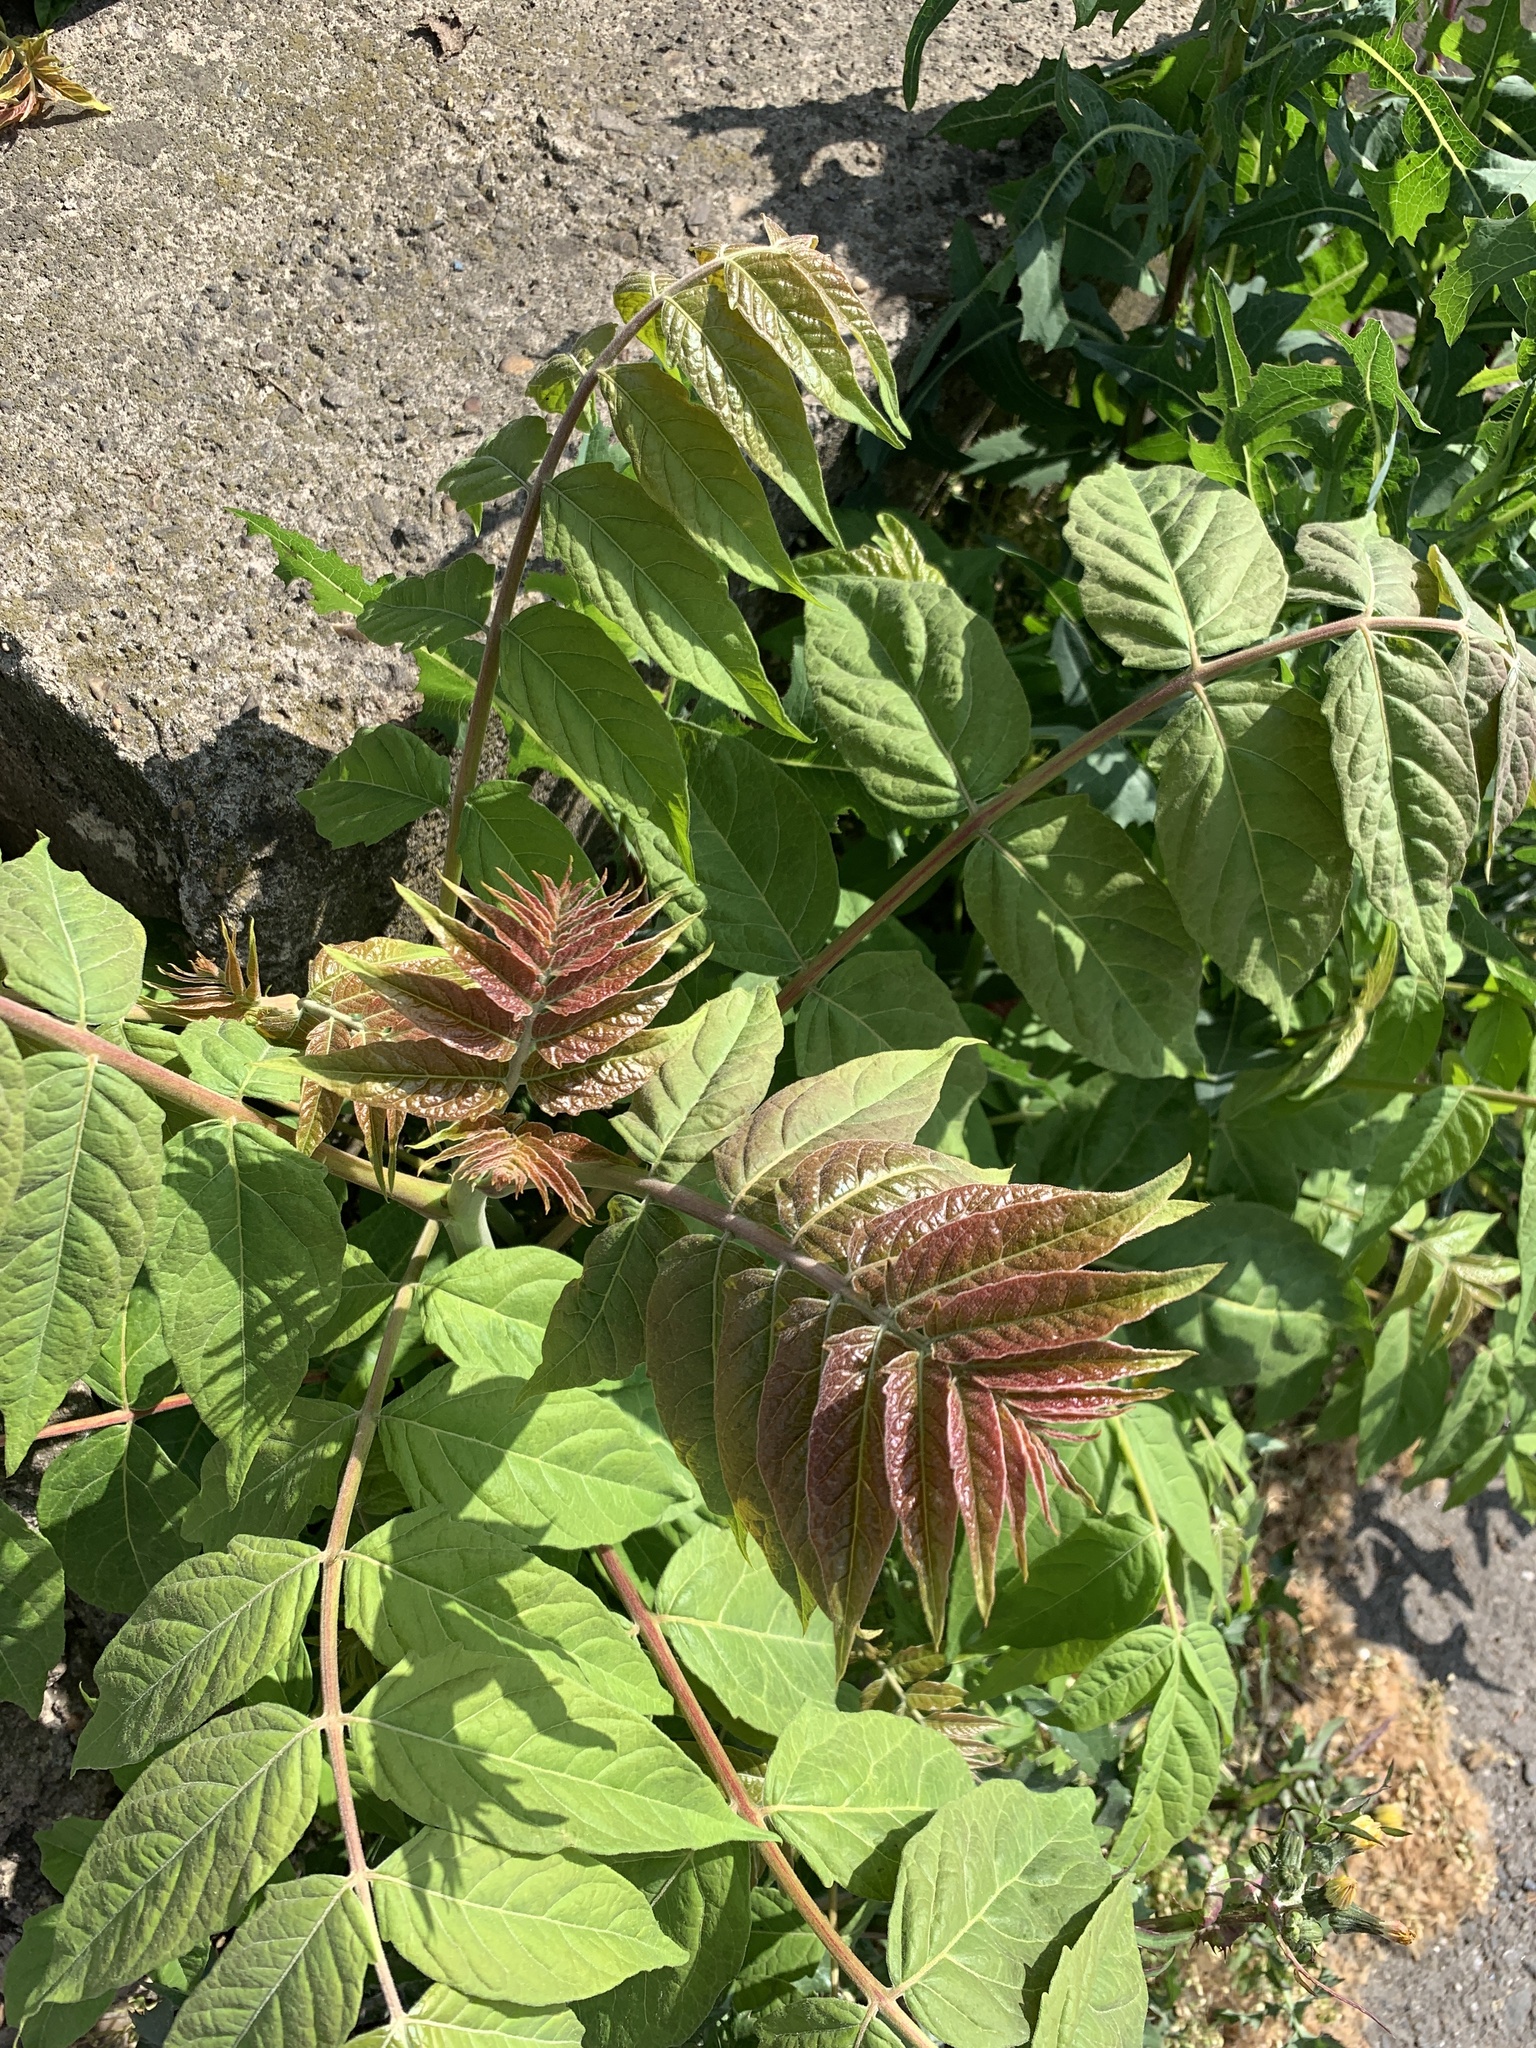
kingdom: Plantae
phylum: Tracheophyta
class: Magnoliopsida
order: Sapindales
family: Simaroubaceae
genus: Ailanthus
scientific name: Ailanthus altissima
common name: Tree-of-heaven
